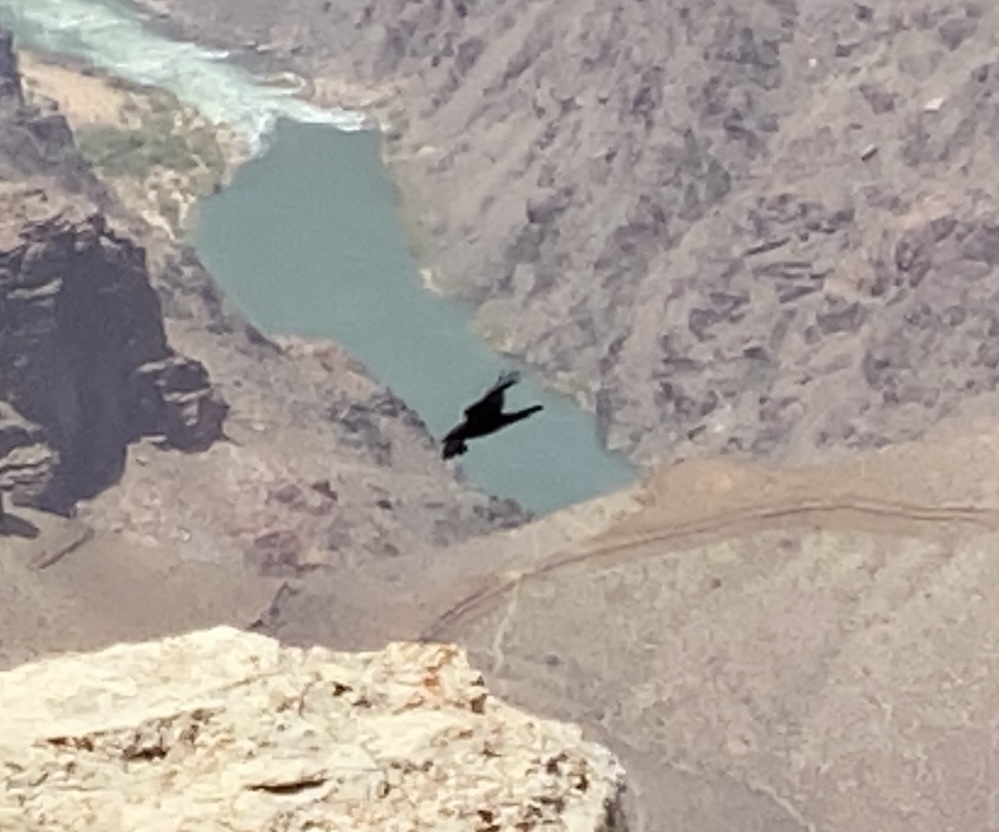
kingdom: Animalia
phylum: Chordata
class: Aves
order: Passeriformes
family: Corvidae
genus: Corvus
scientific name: Corvus corax
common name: Common raven
